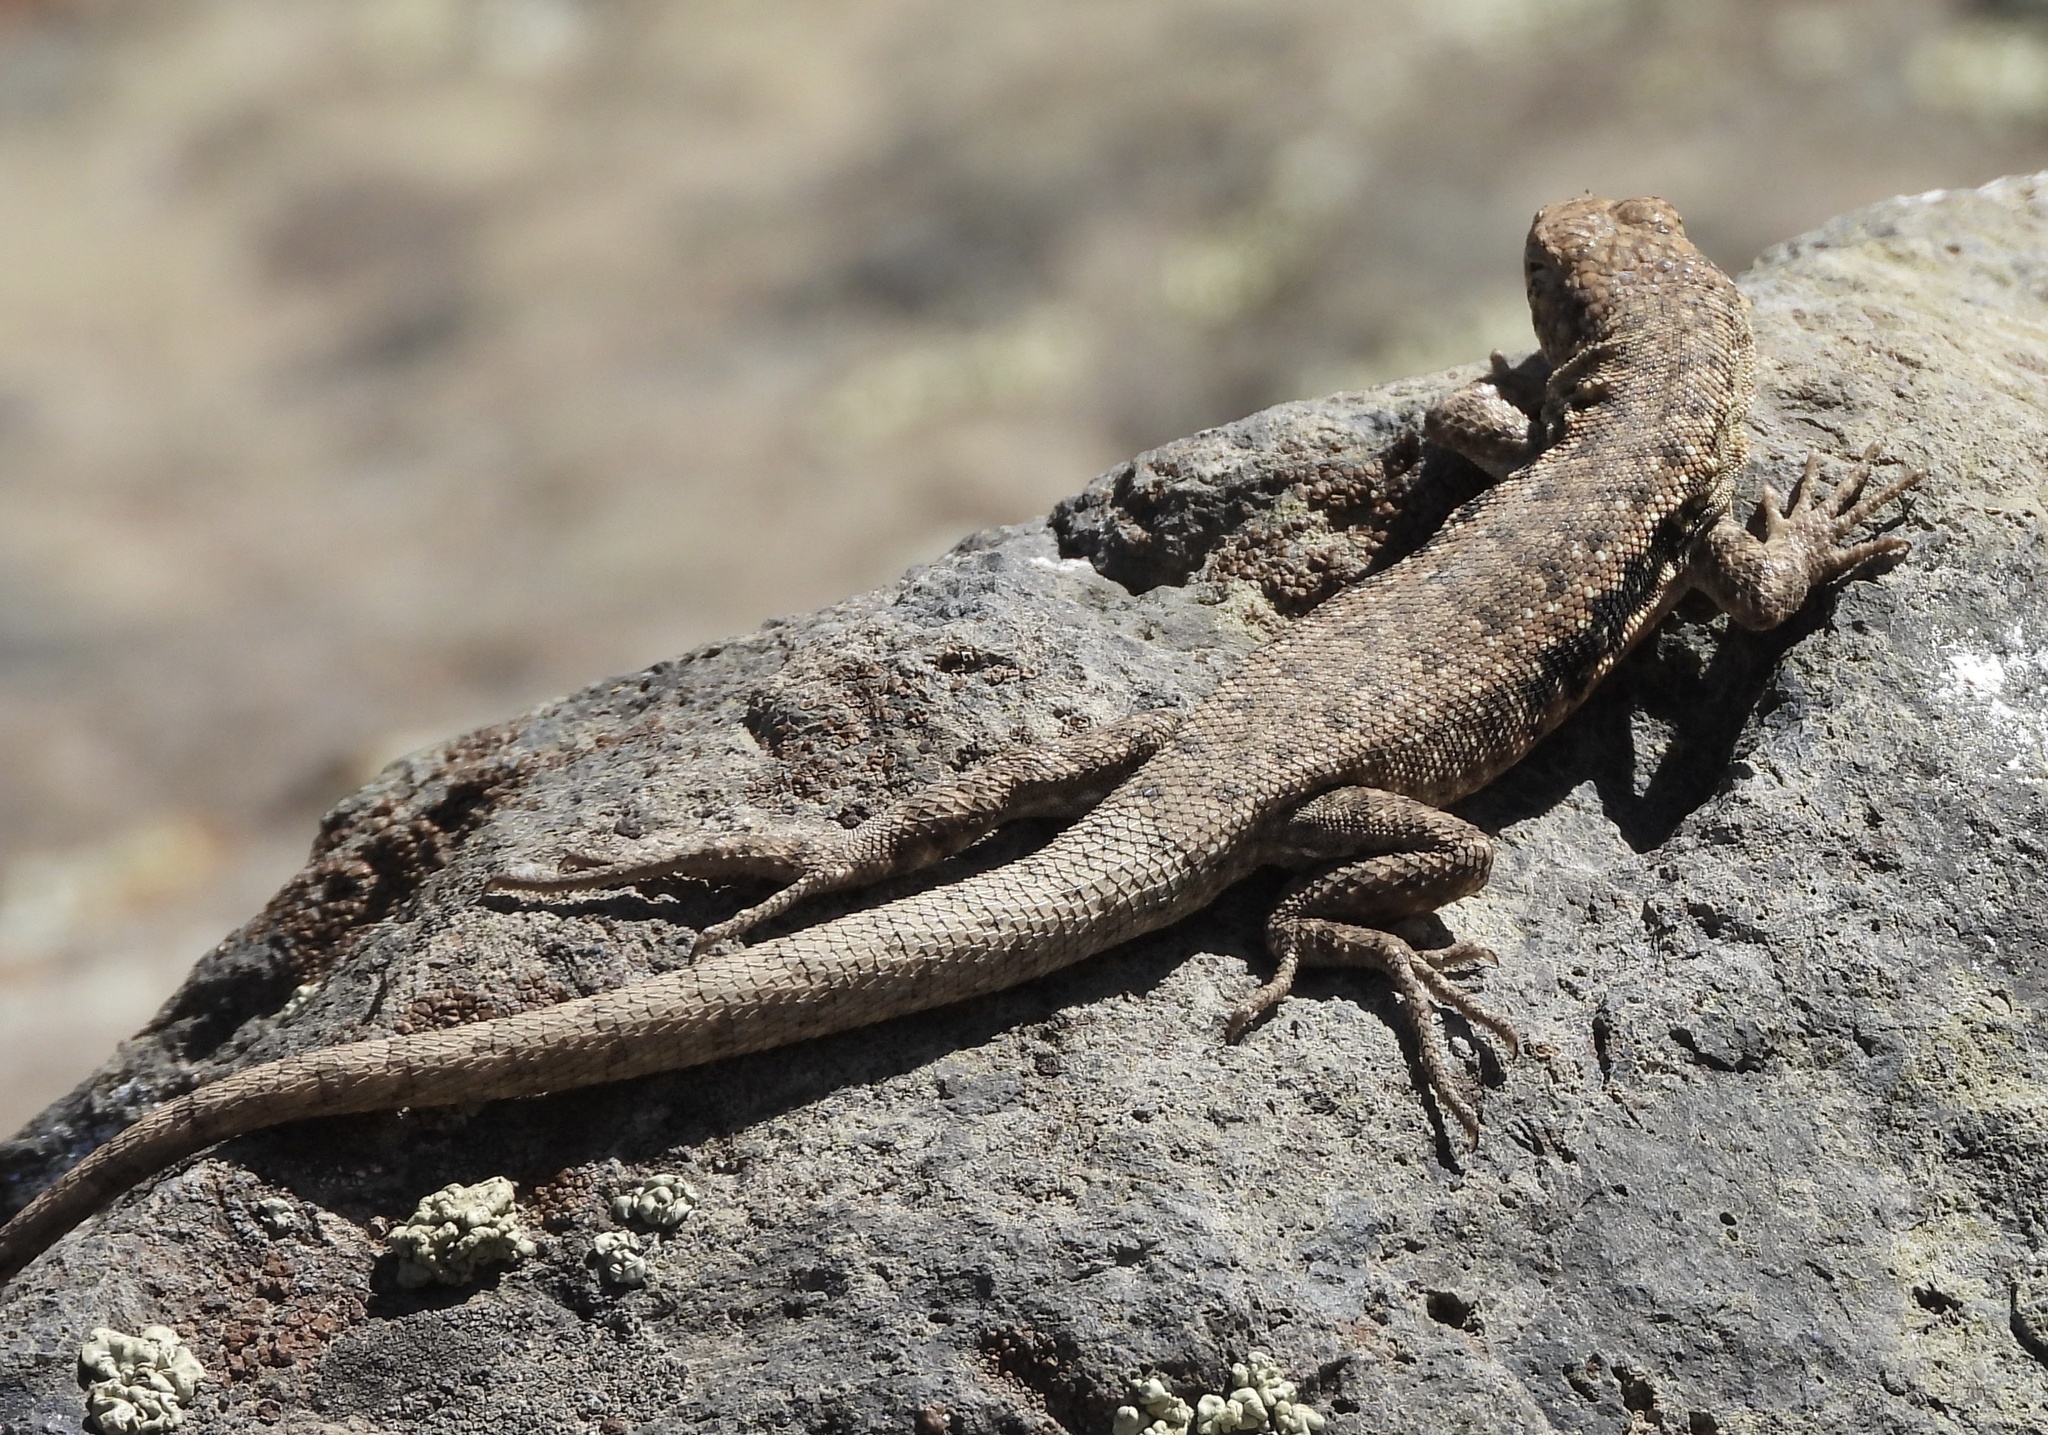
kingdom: Animalia
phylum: Chordata
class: Squamata
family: Liolaemidae
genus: Liolaemus
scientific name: Liolaemus monticola
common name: Peak tree iguana
